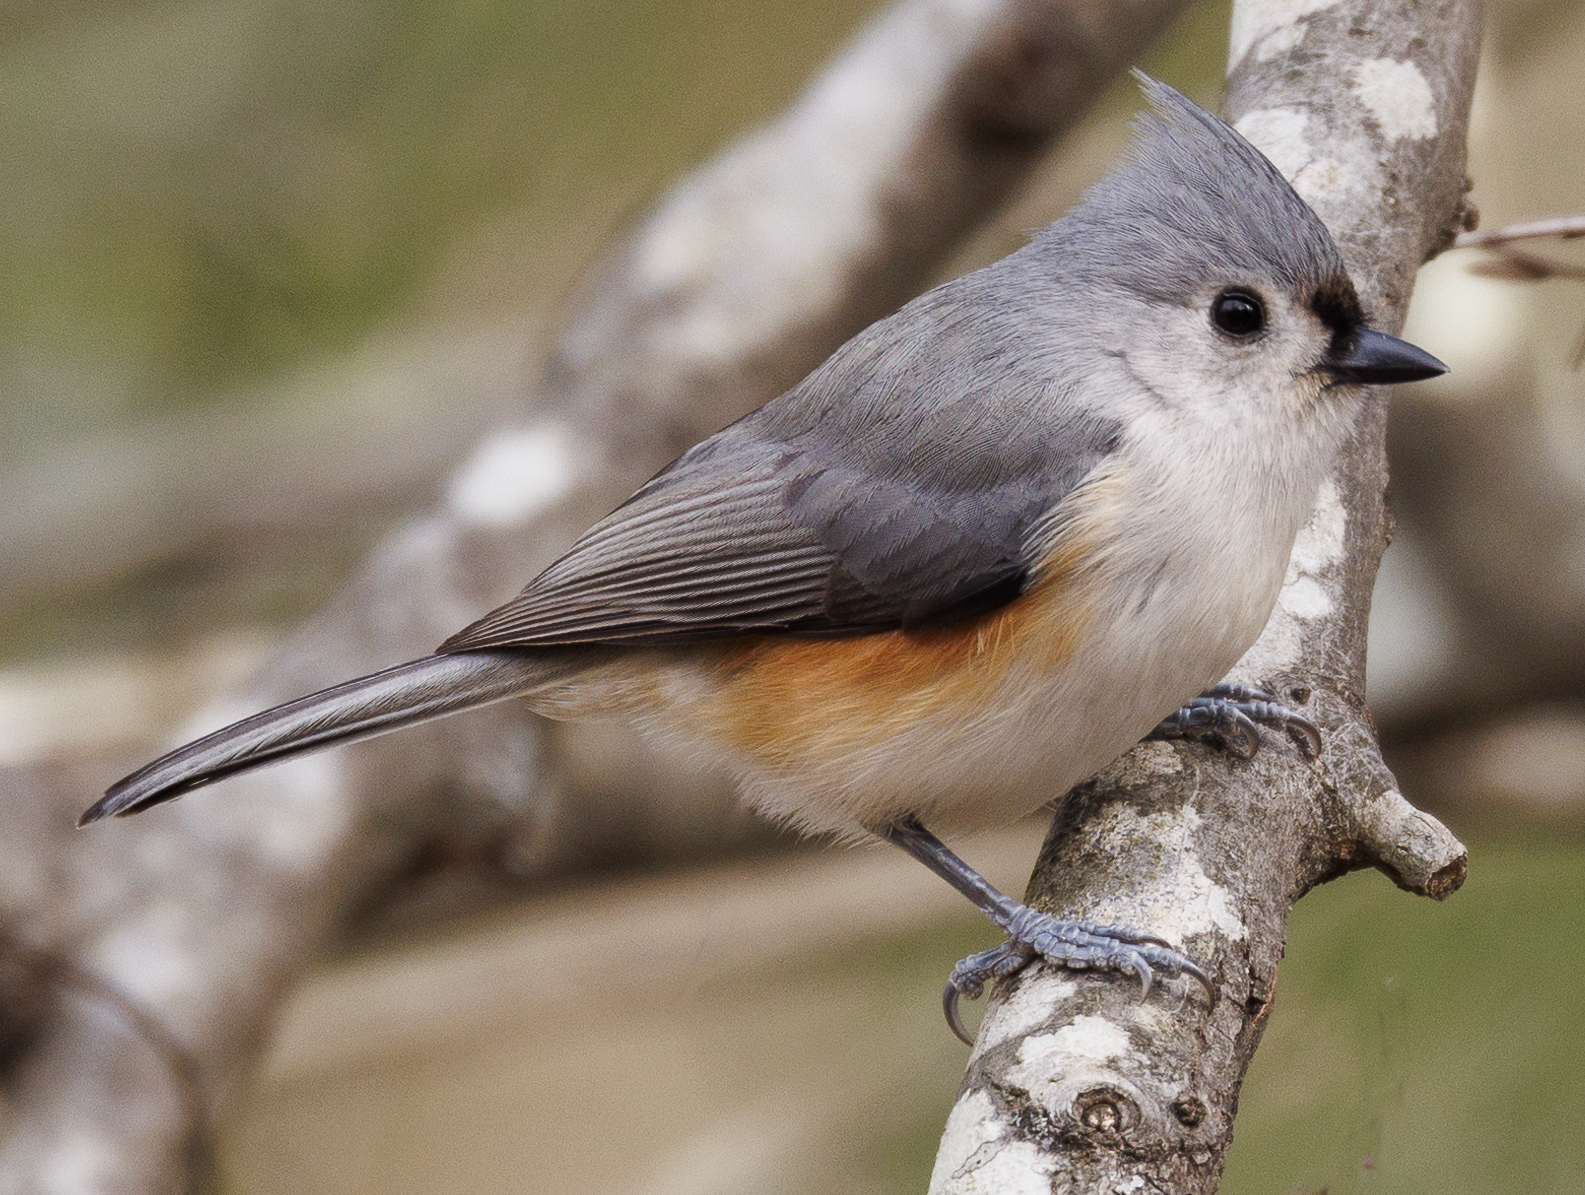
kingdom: Animalia
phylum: Chordata
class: Aves
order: Passeriformes
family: Paridae
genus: Baeolophus
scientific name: Baeolophus bicolor
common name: Tufted titmouse
